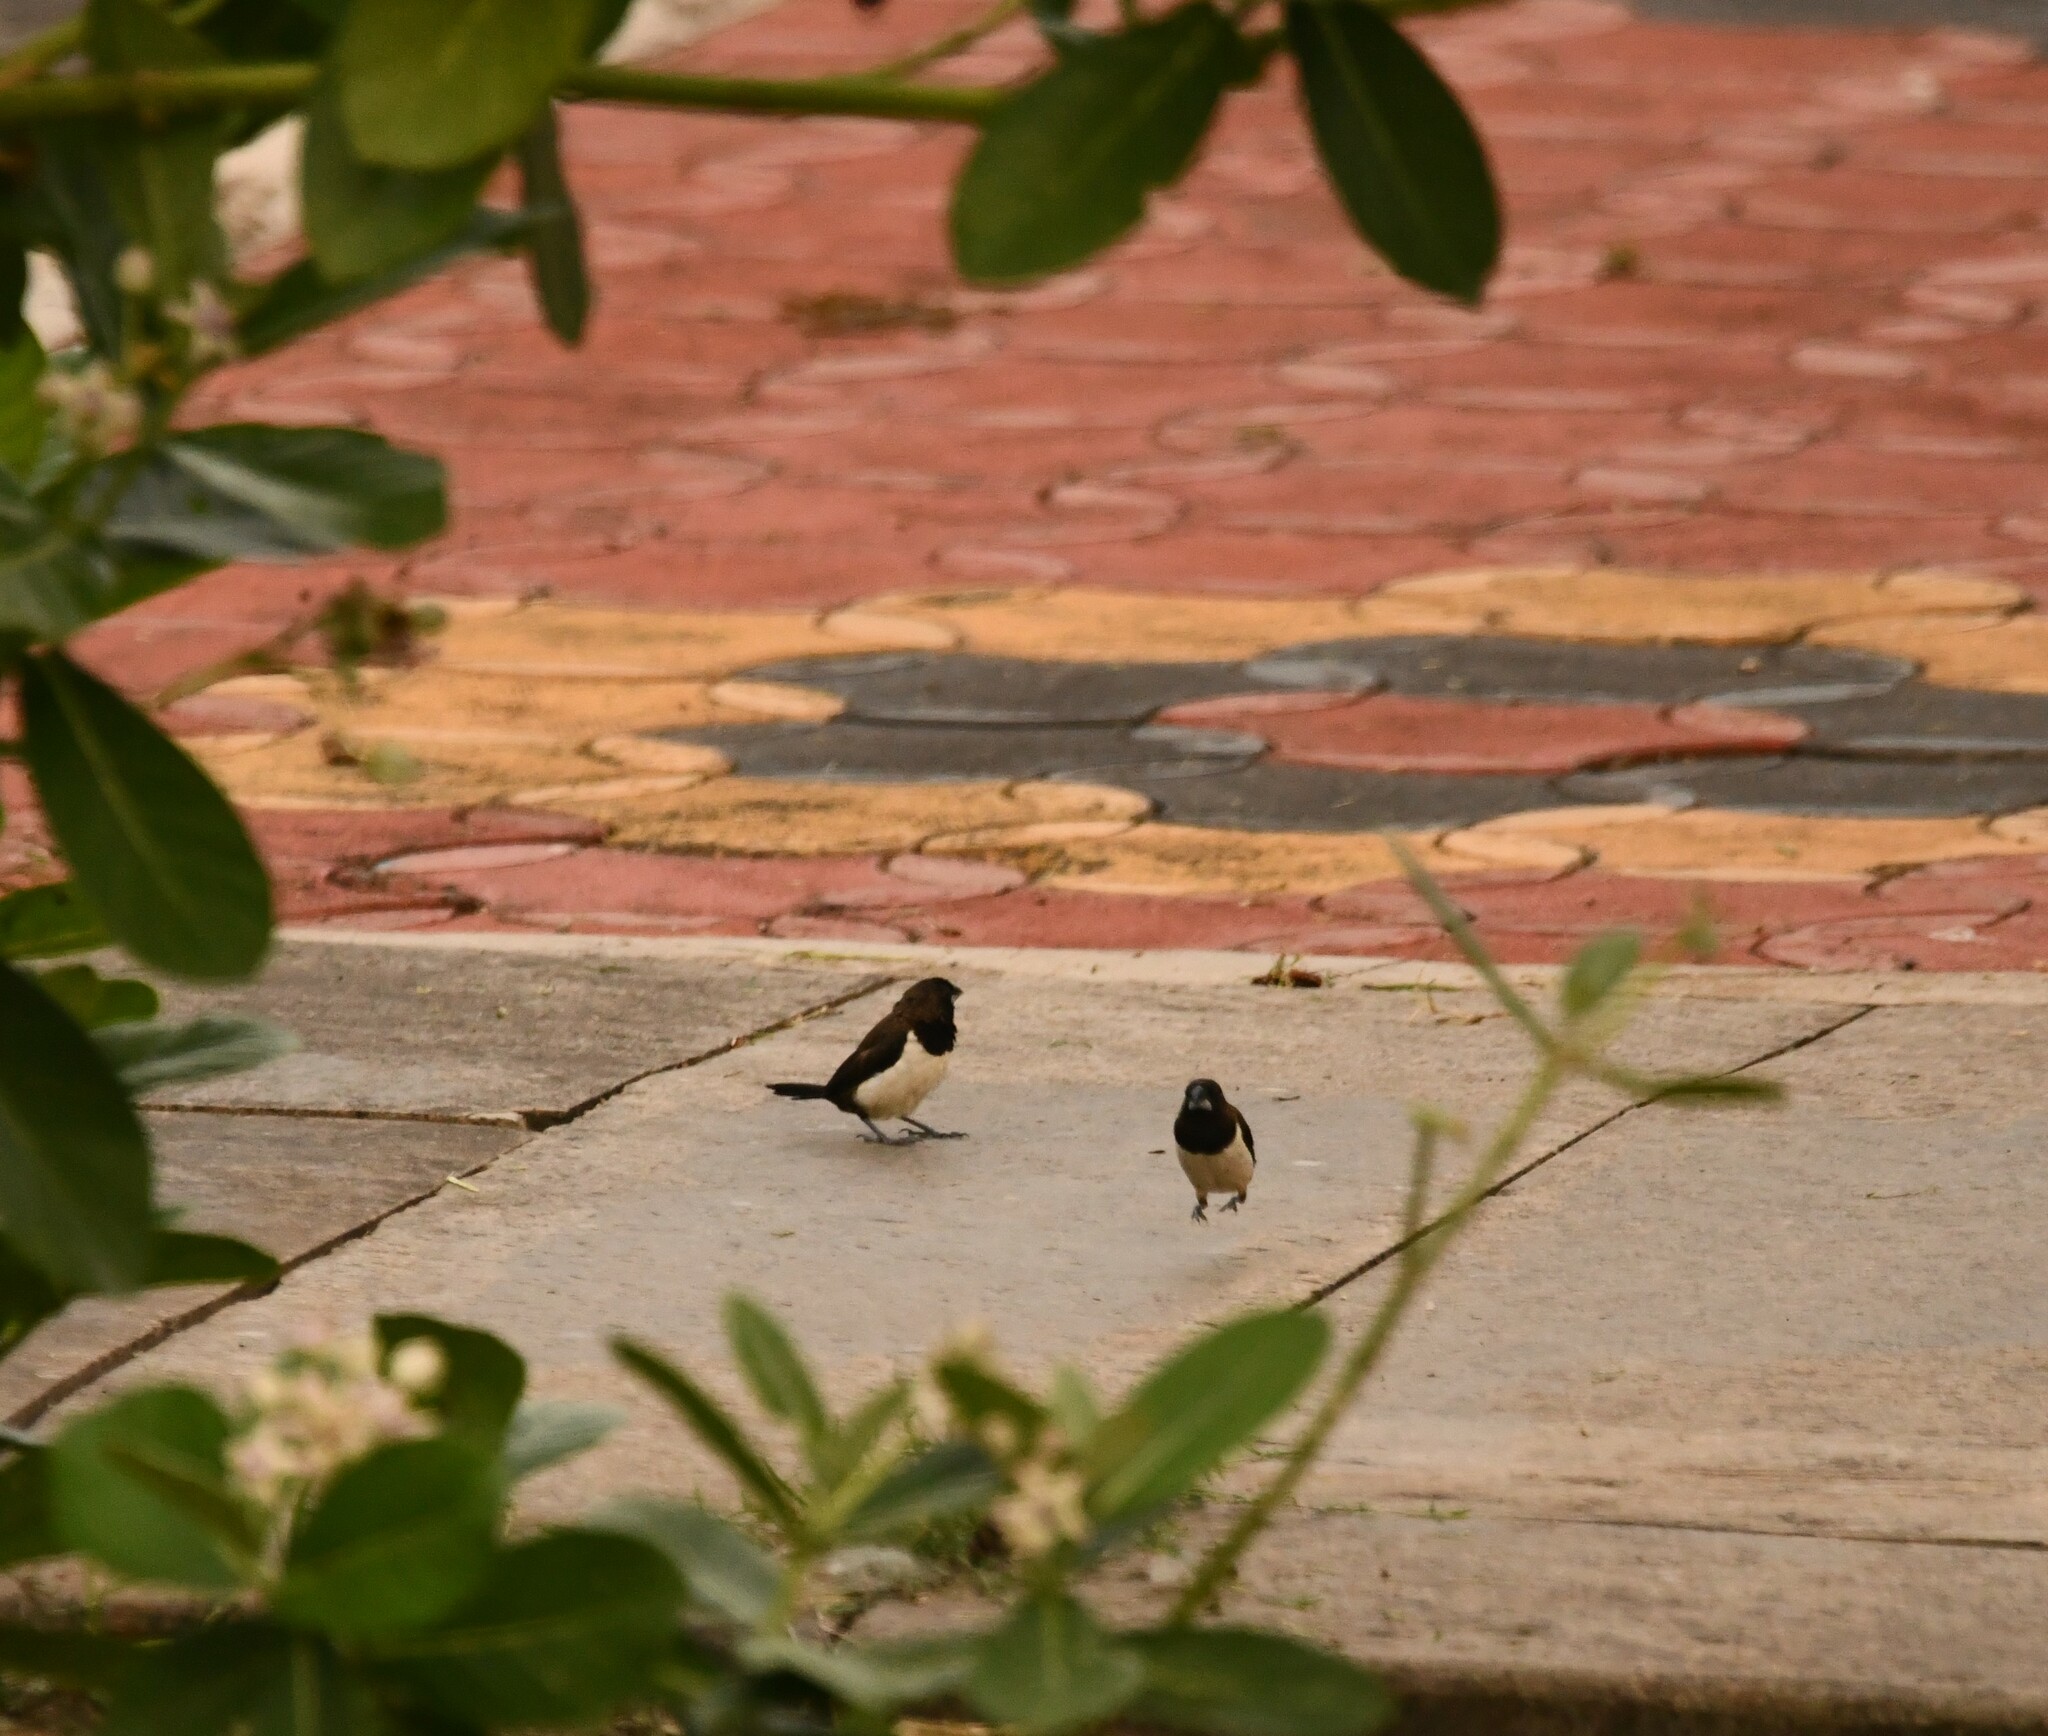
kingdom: Animalia
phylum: Chordata
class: Aves
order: Passeriformes
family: Estrildidae
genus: Lonchura
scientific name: Lonchura striata
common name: White-rumped munia
